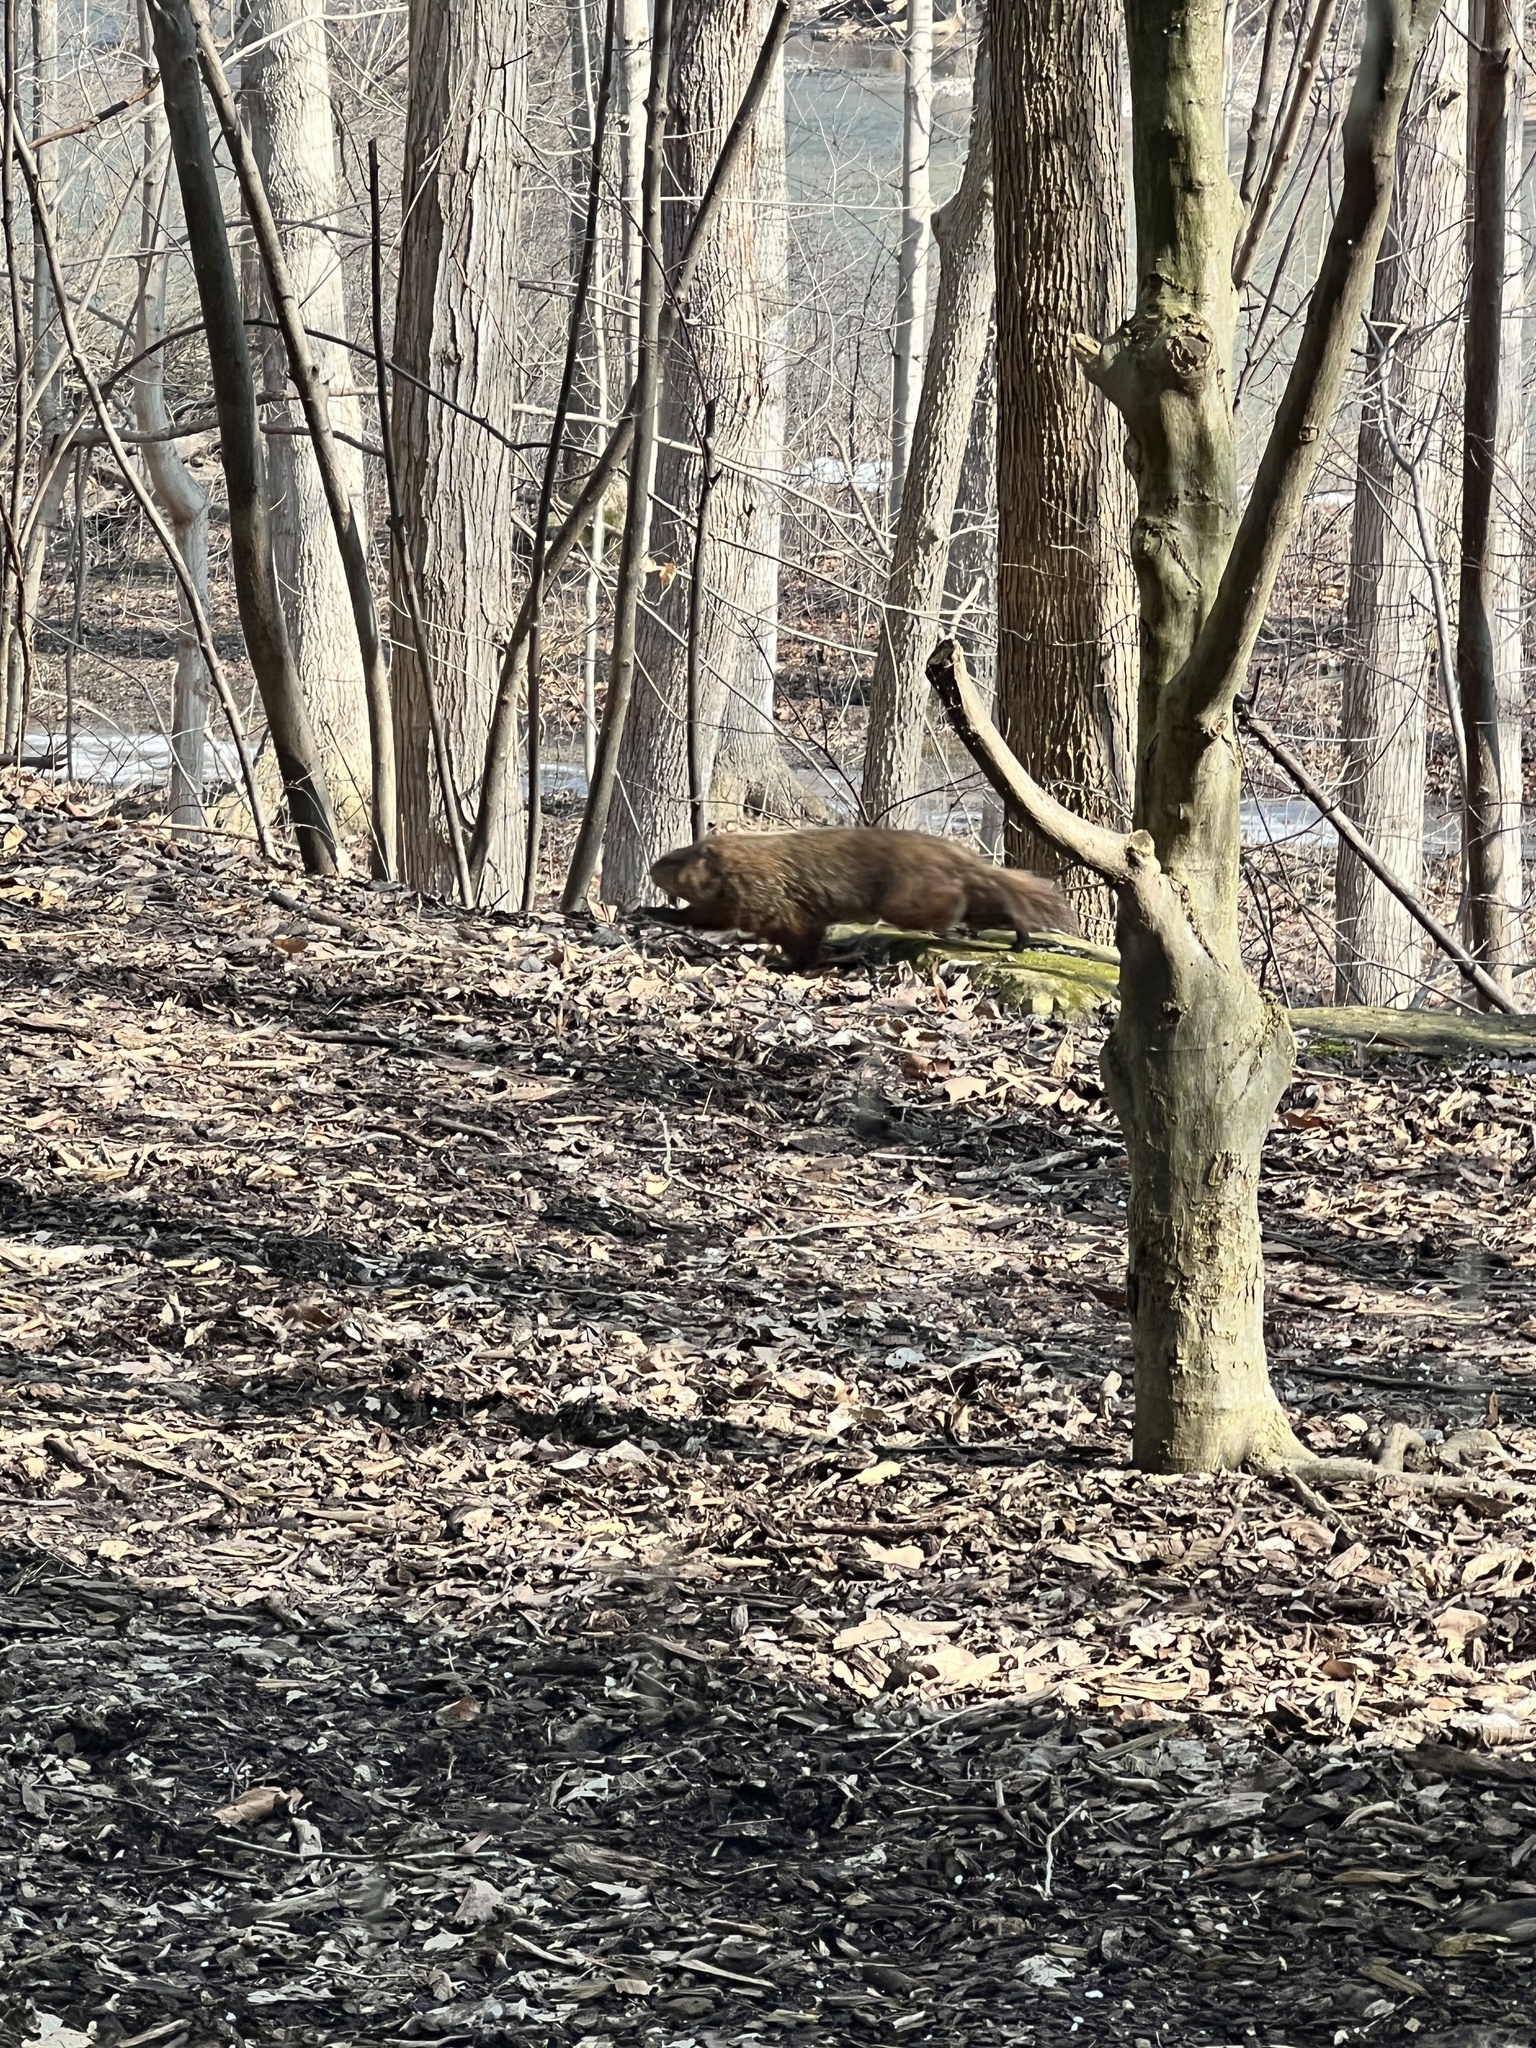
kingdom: Animalia
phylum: Chordata
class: Mammalia
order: Rodentia
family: Sciuridae
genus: Marmota
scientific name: Marmota monax
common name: Groundhog
